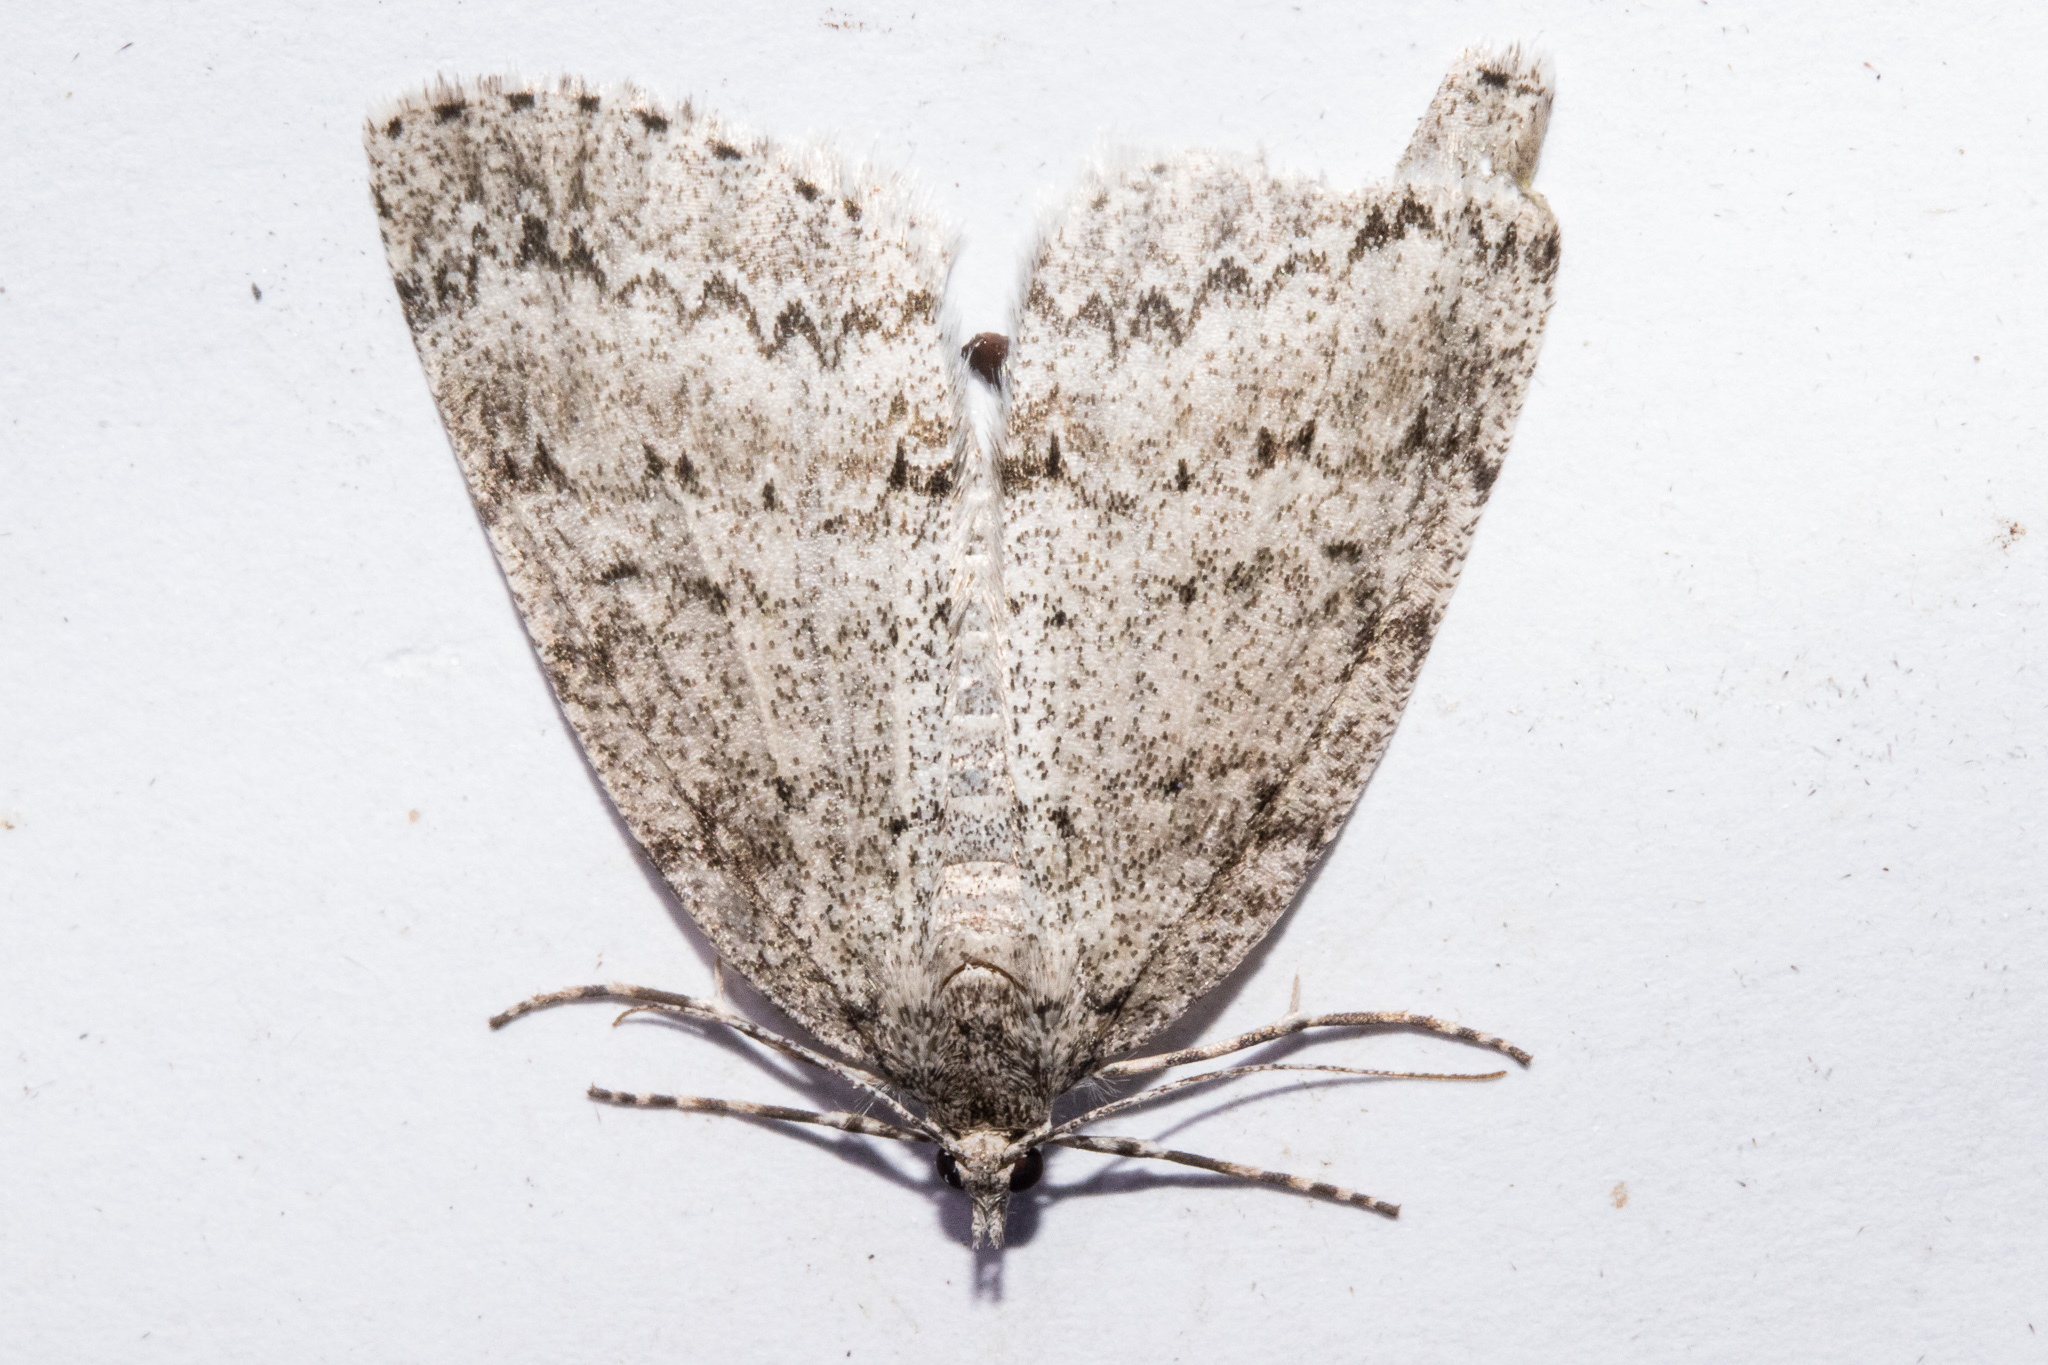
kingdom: Animalia
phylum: Arthropoda
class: Insecta
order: Lepidoptera
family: Geometridae
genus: Pseudocoremia
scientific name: Pseudocoremia fenerata
